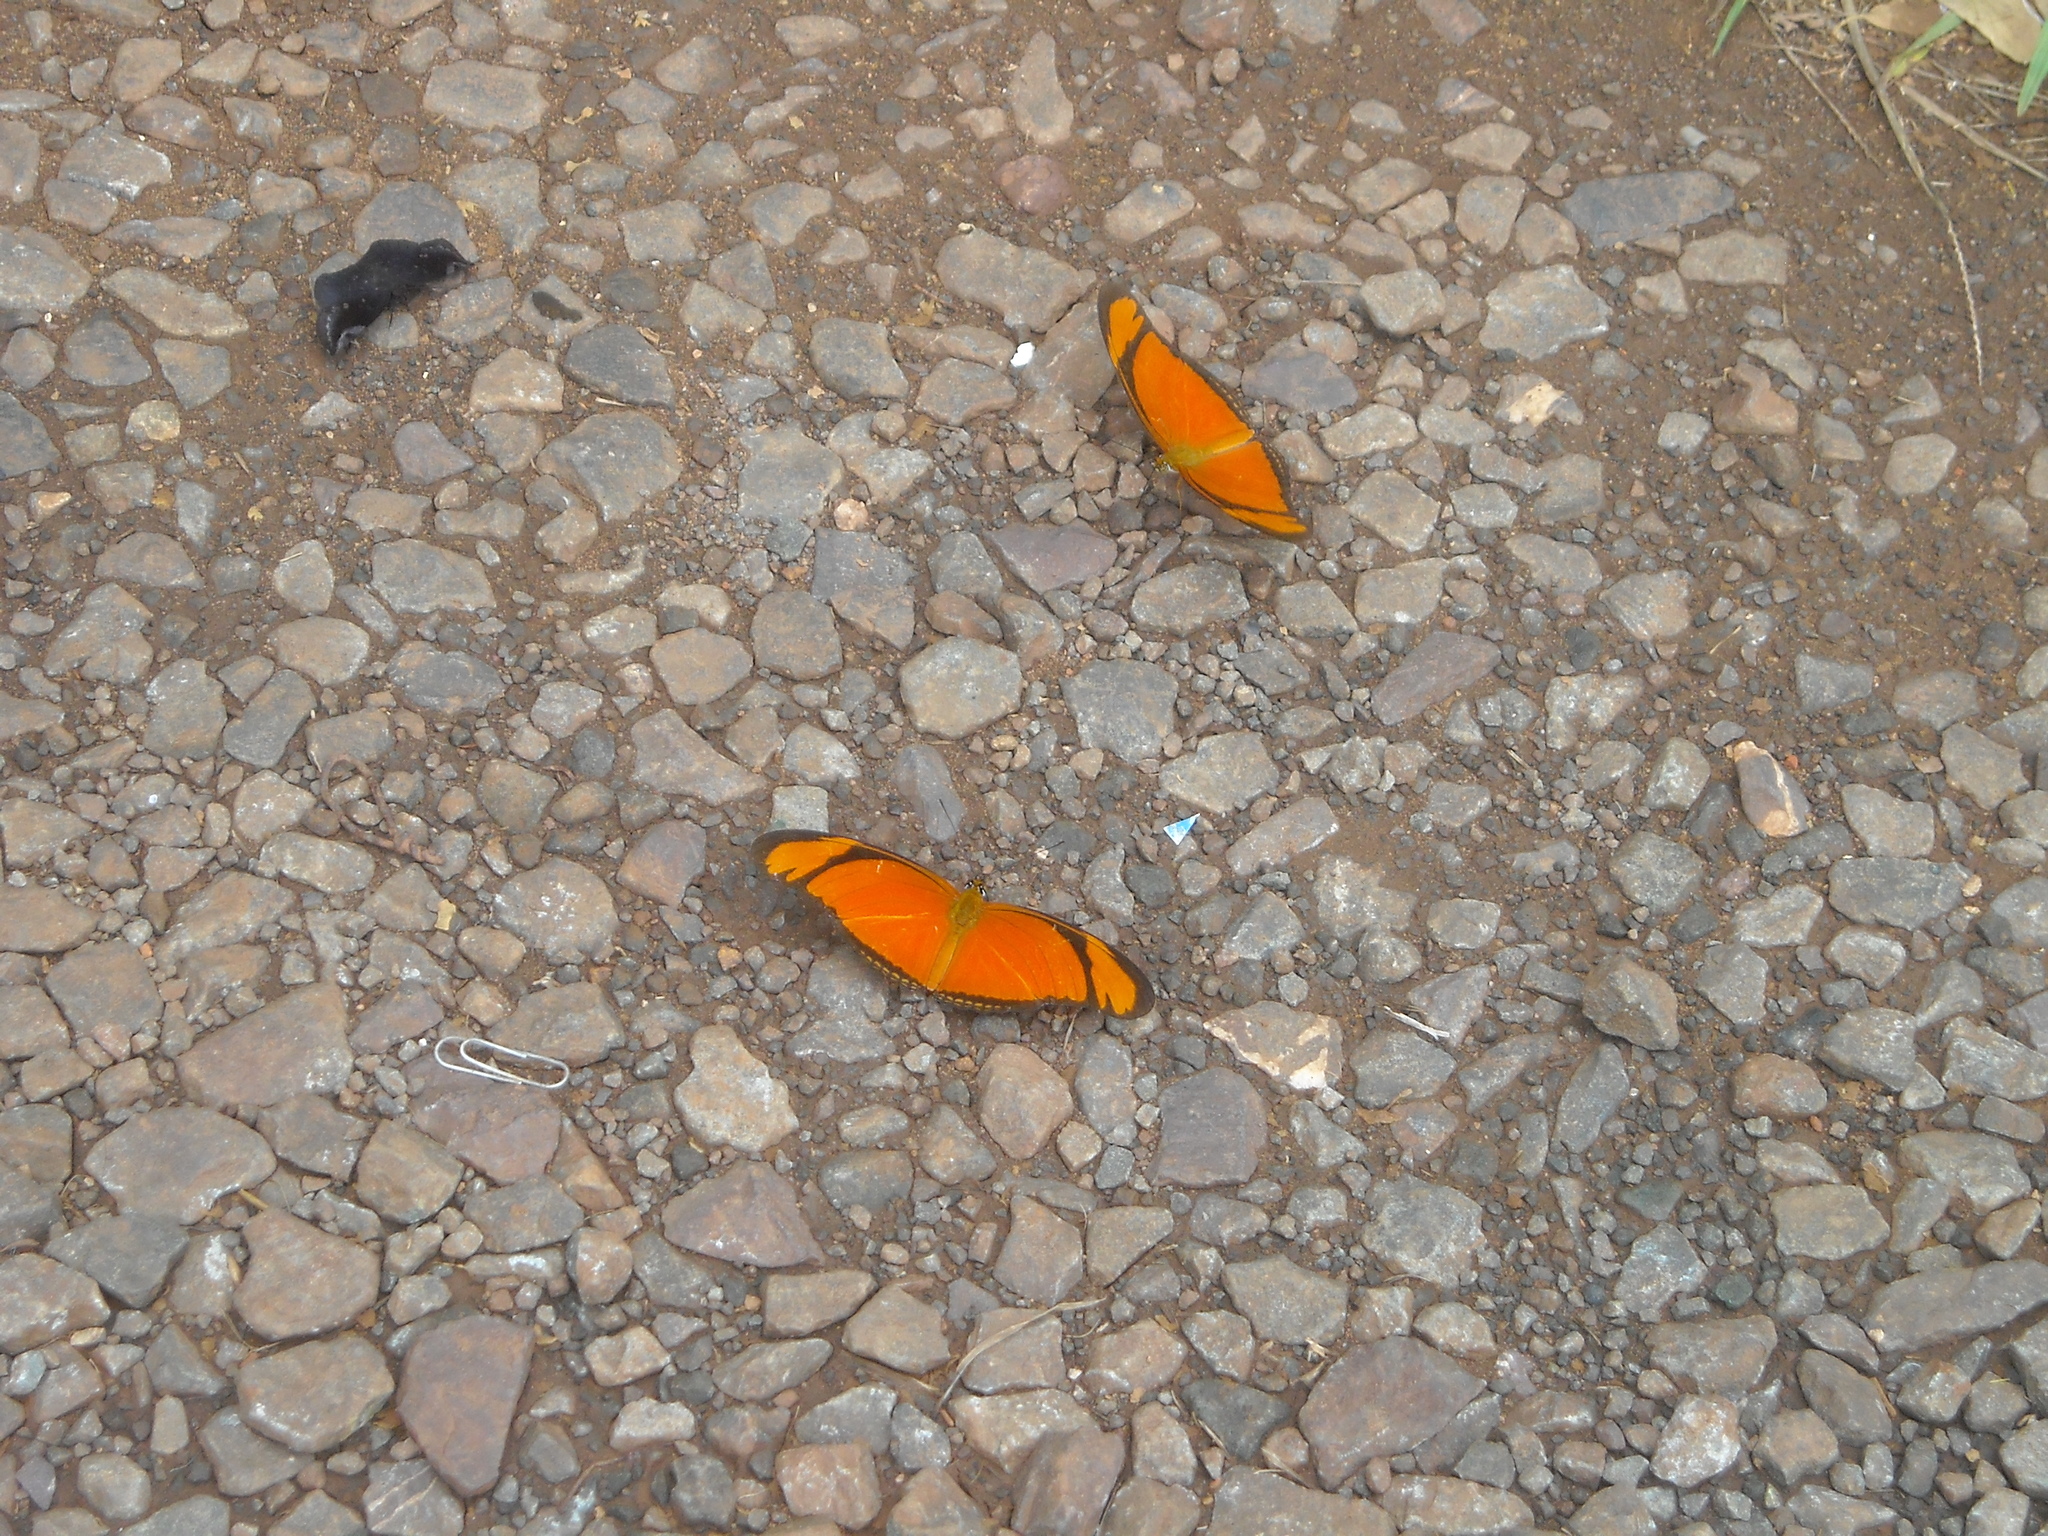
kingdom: Animalia
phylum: Arthropoda
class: Insecta
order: Lepidoptera
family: Nymphalidae
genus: Dryas
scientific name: Dryas iulia
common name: Flambeau
